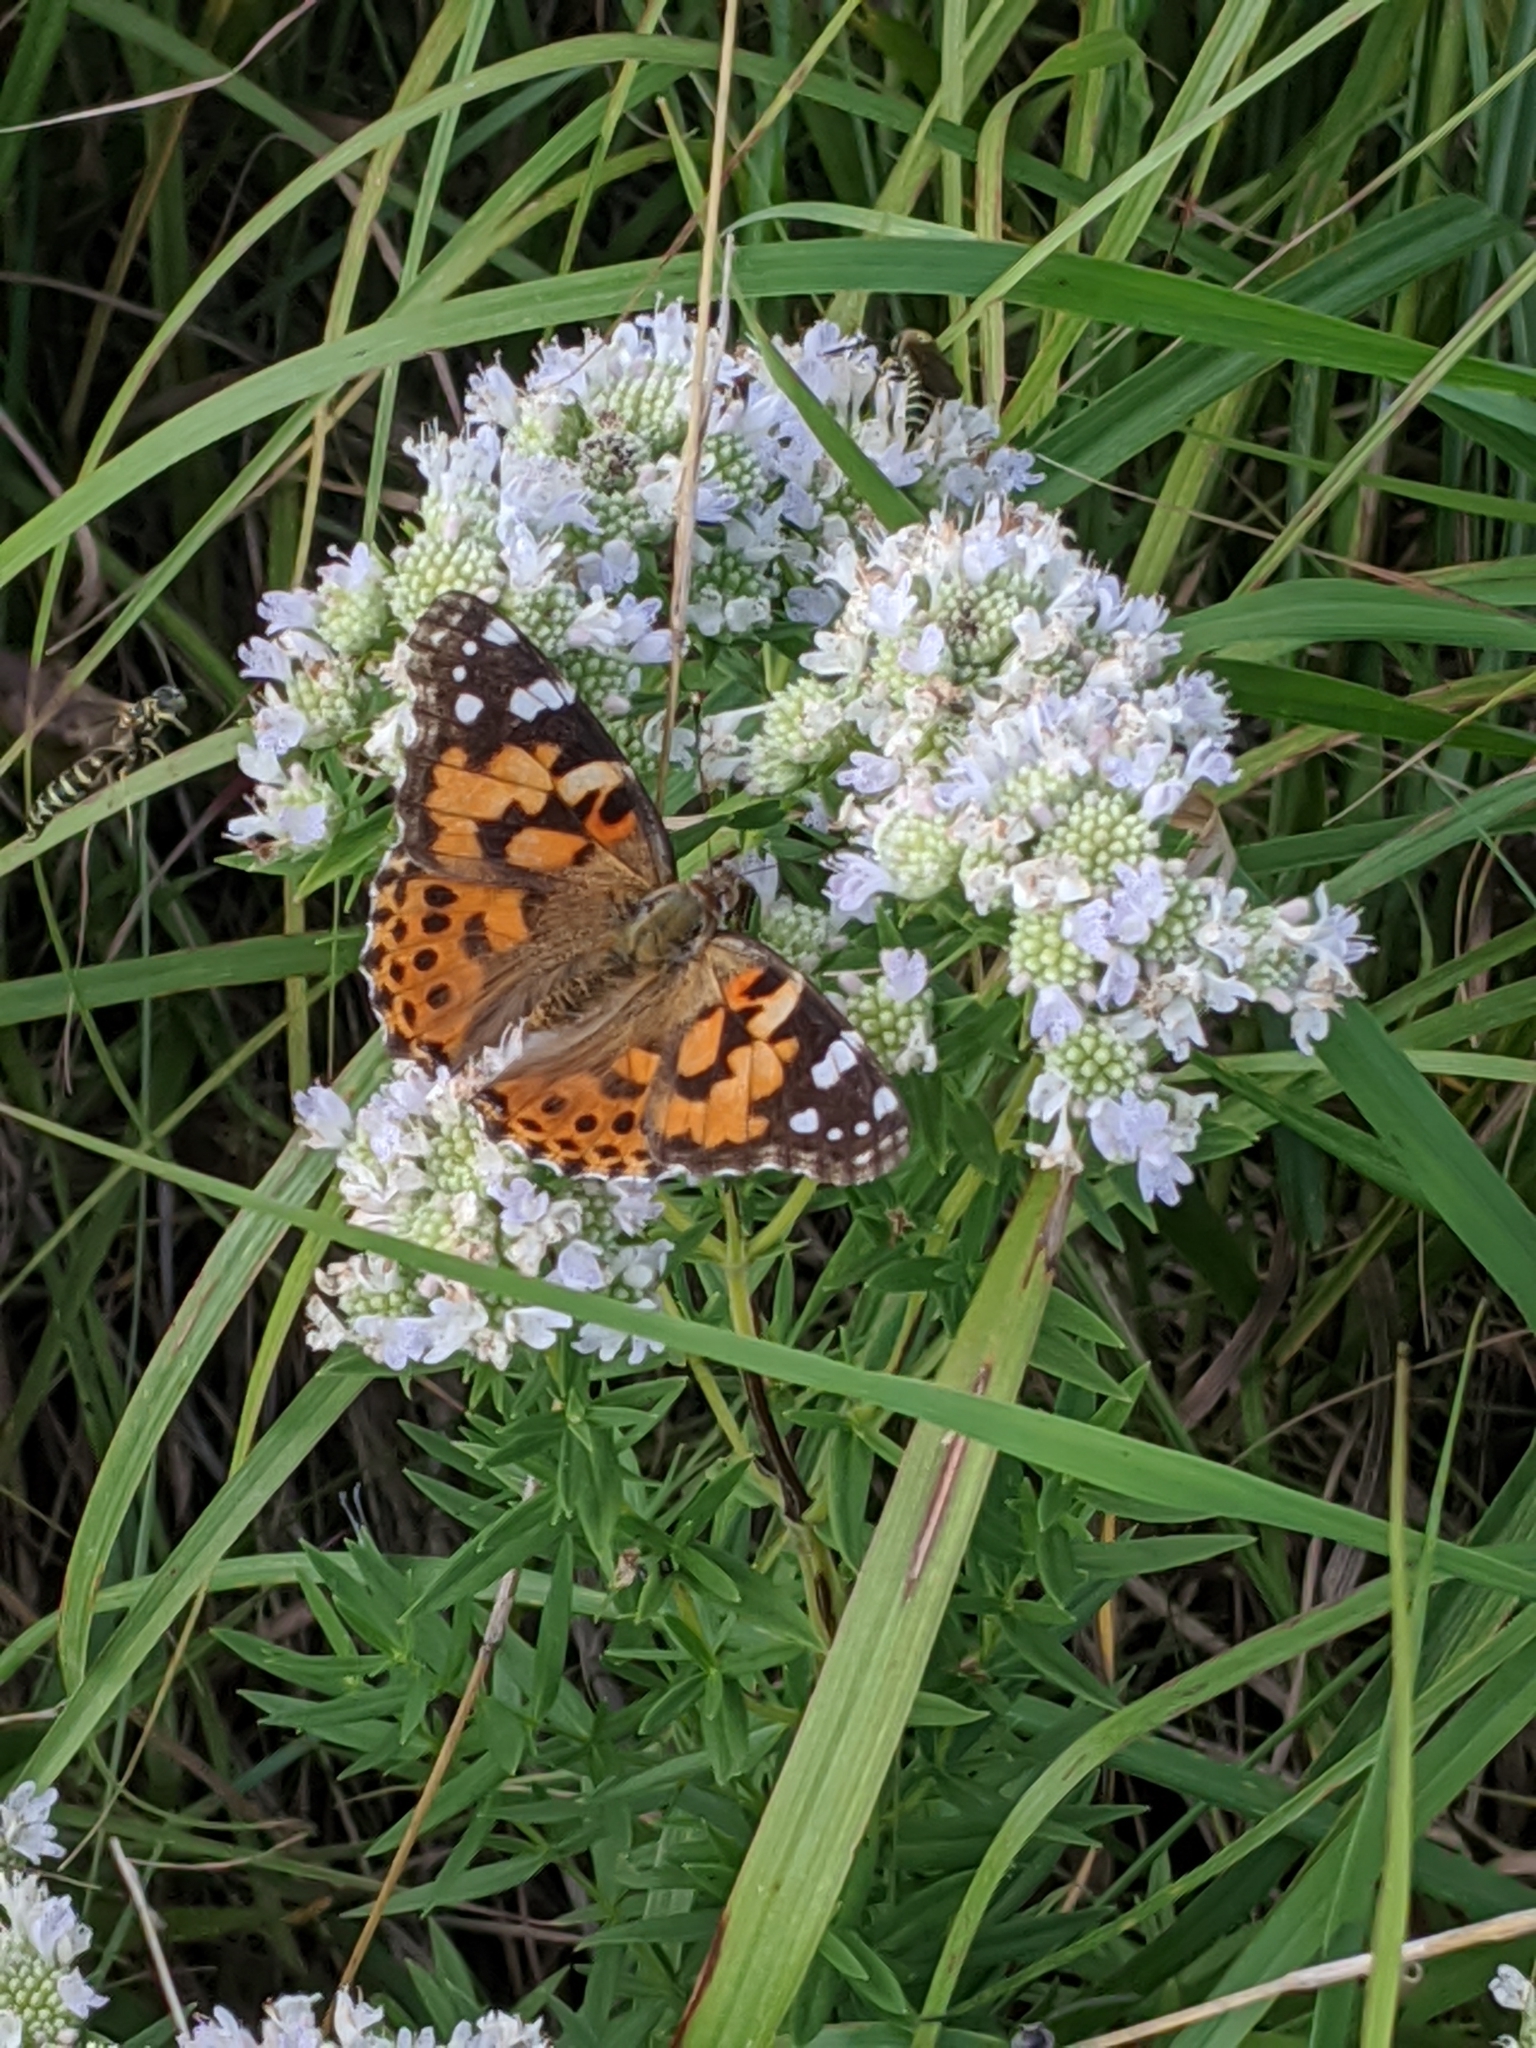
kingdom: Animalia
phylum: Arthropoda
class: Insecta
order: Lepidoptera
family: Nymphalidae
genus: Vanessa
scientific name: Vanessa cardui
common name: Painted lady
